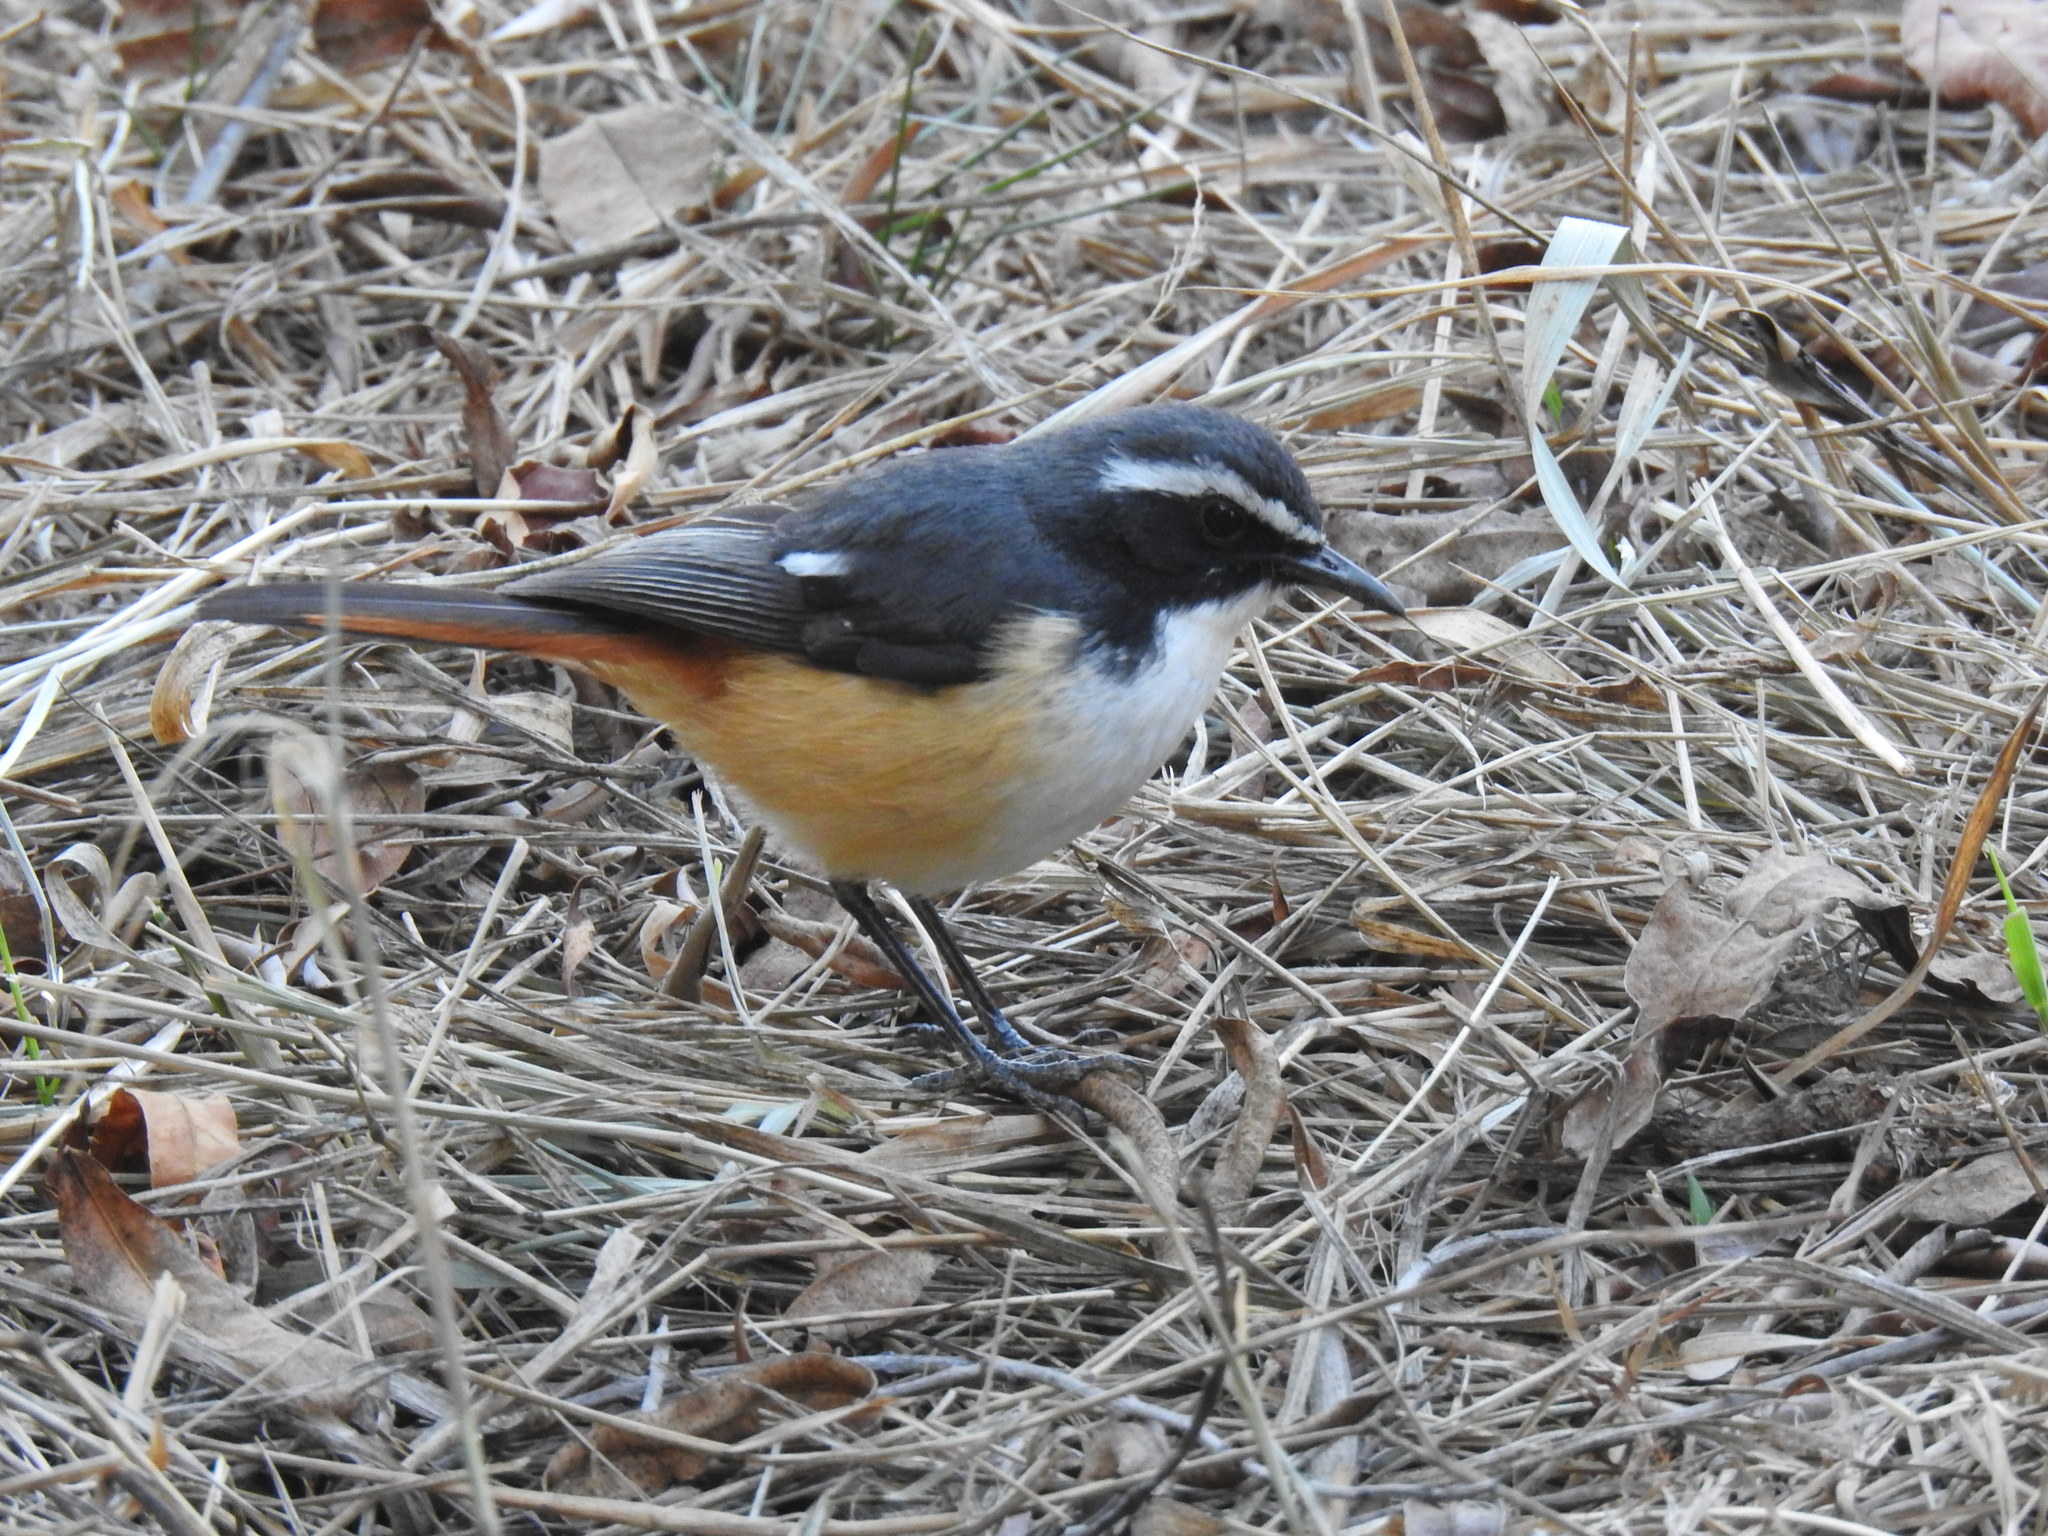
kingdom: Animalia
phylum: Chordata
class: Aves
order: Passeriformes
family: Muscicapidae
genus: Cossypha
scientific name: Cossypha humeralis
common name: White-throated robin-chat
